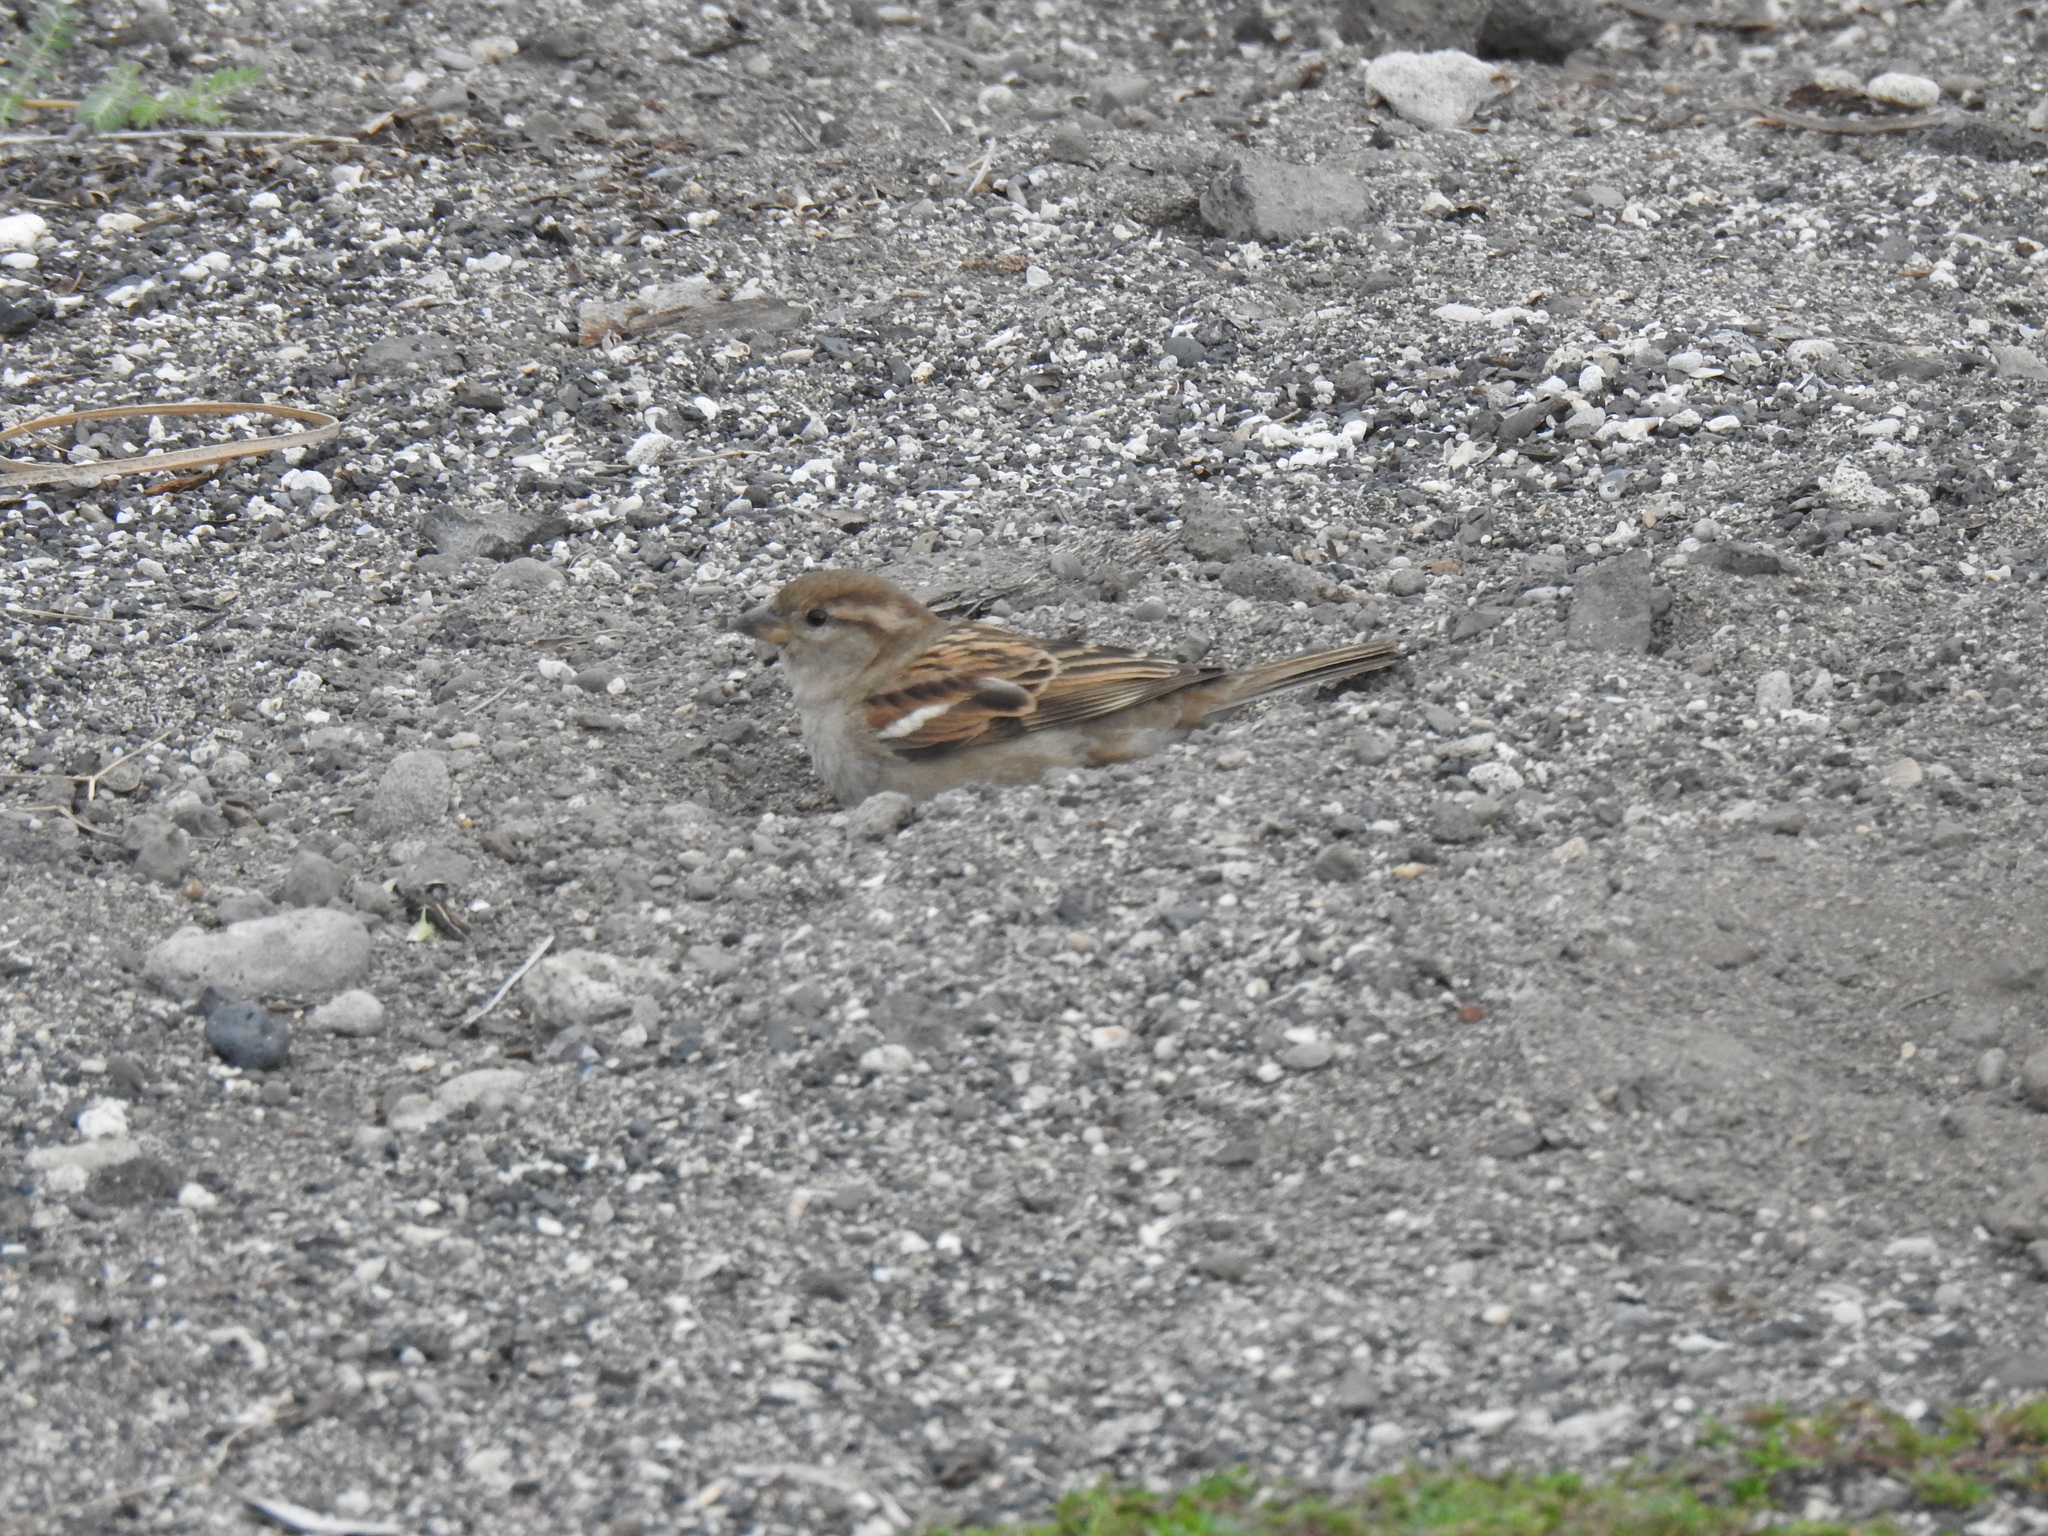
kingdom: Animalia
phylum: Chordata
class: Aves
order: Passeriformes
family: Passeridae
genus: Passer
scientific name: Passer domesticus
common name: House sparrow
